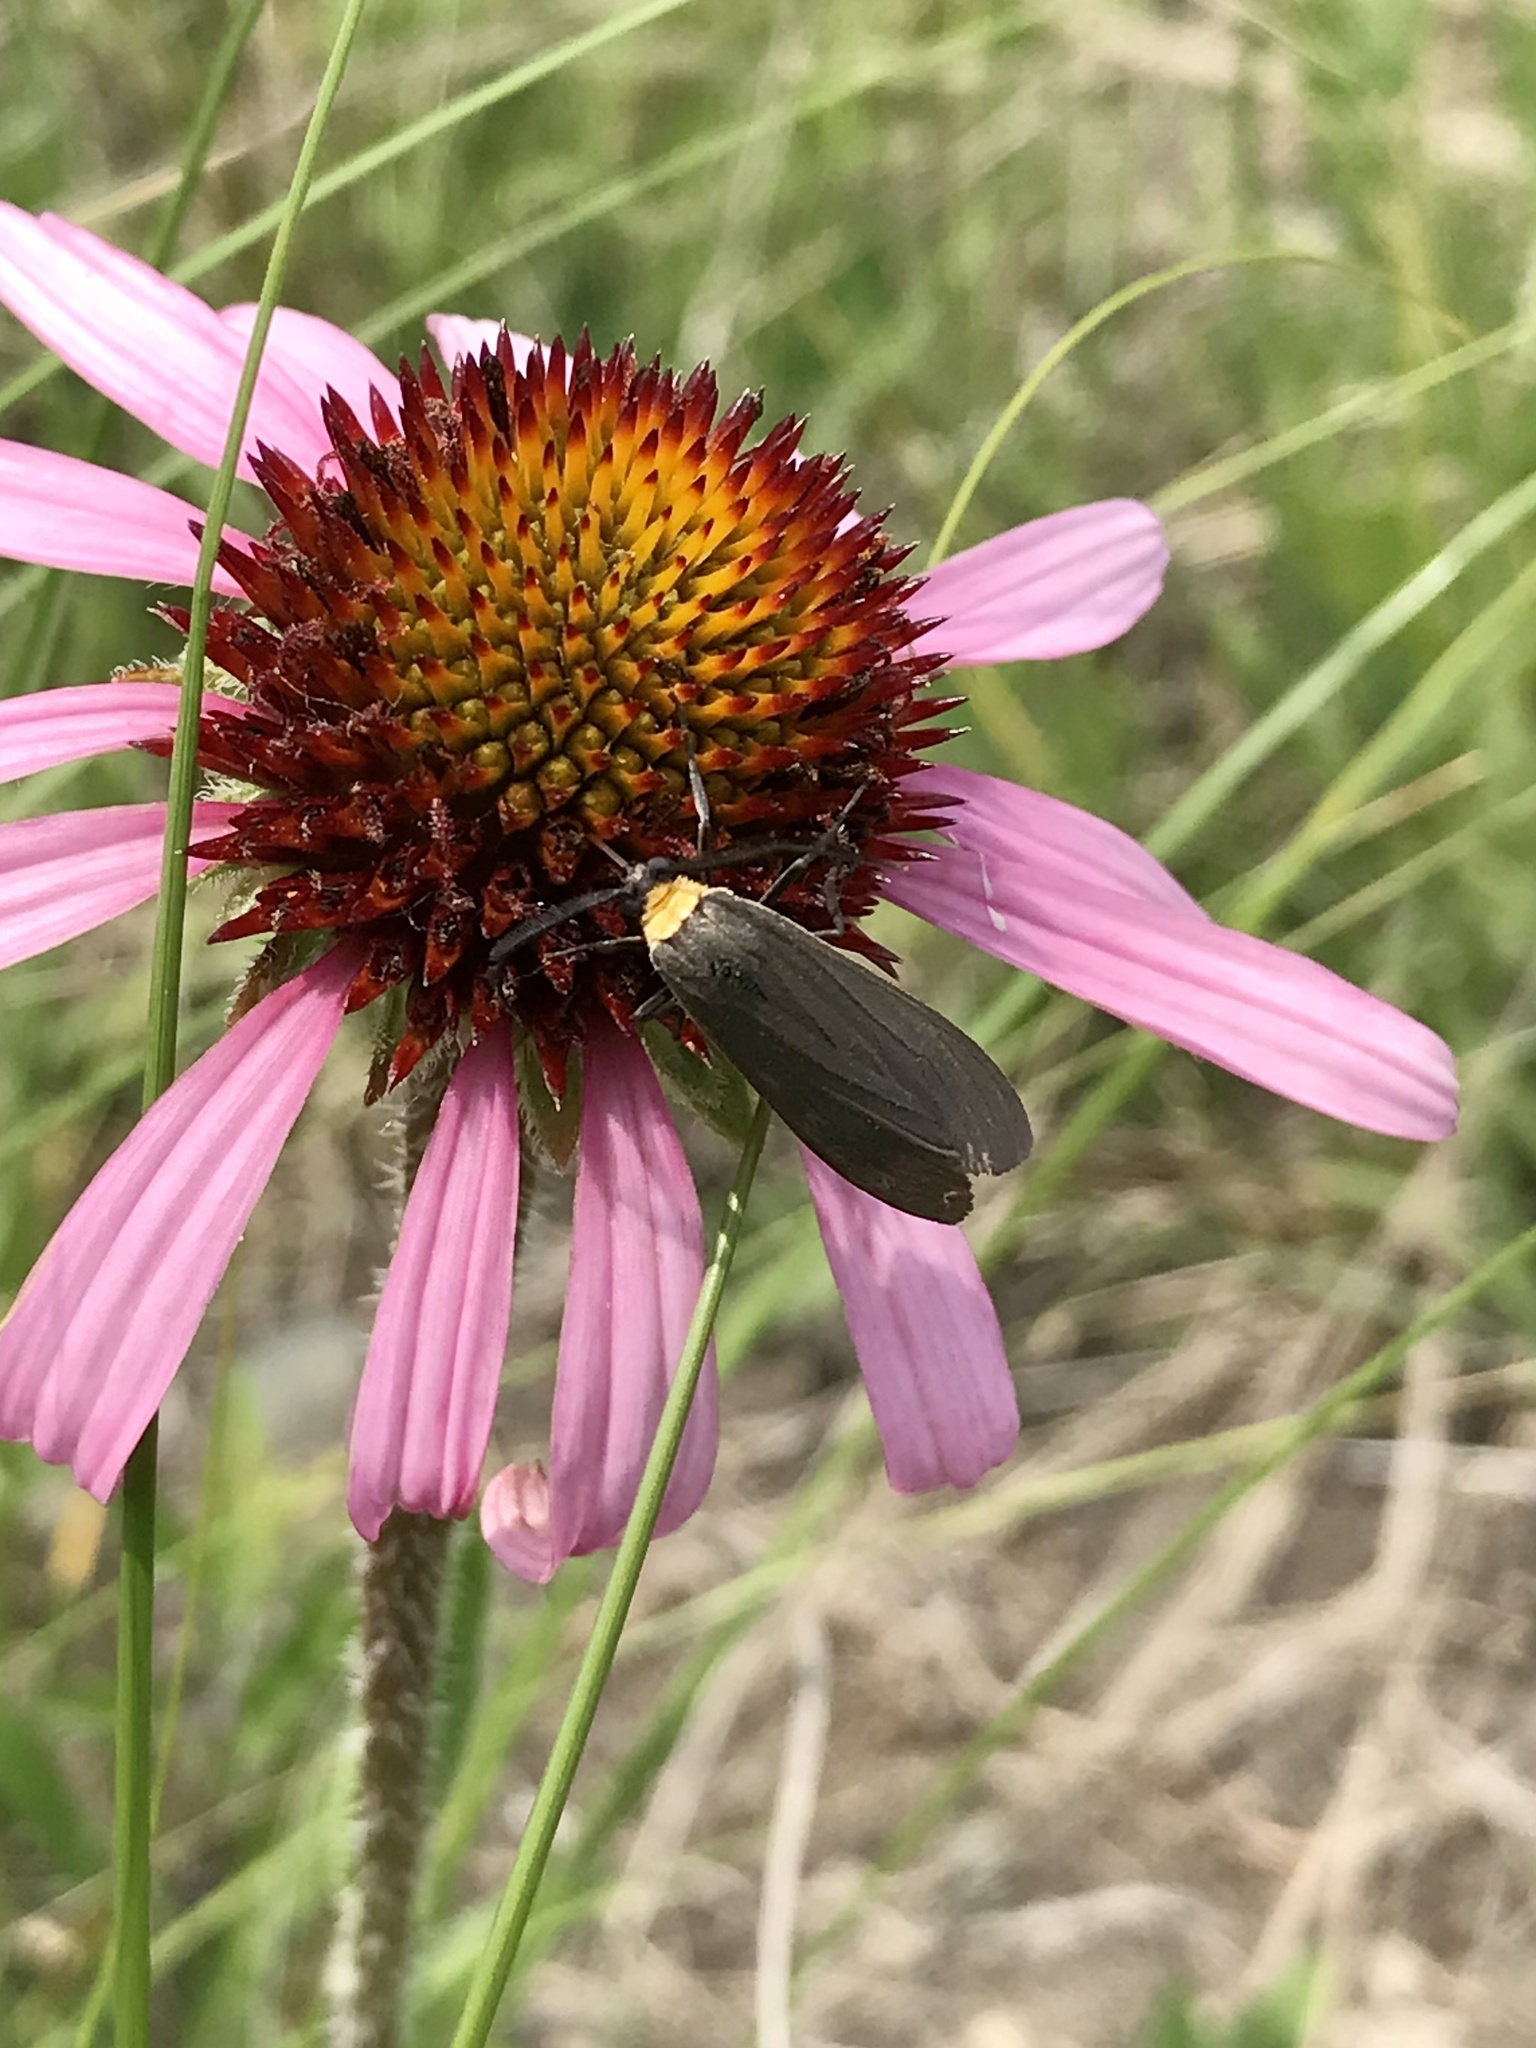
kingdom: Animalia
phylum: Arthropoda
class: Insecta
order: Lepidoptera
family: Erebidae
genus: Cisseps
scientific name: Cisseps fulvicollis
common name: Yellow-collared scape moth
